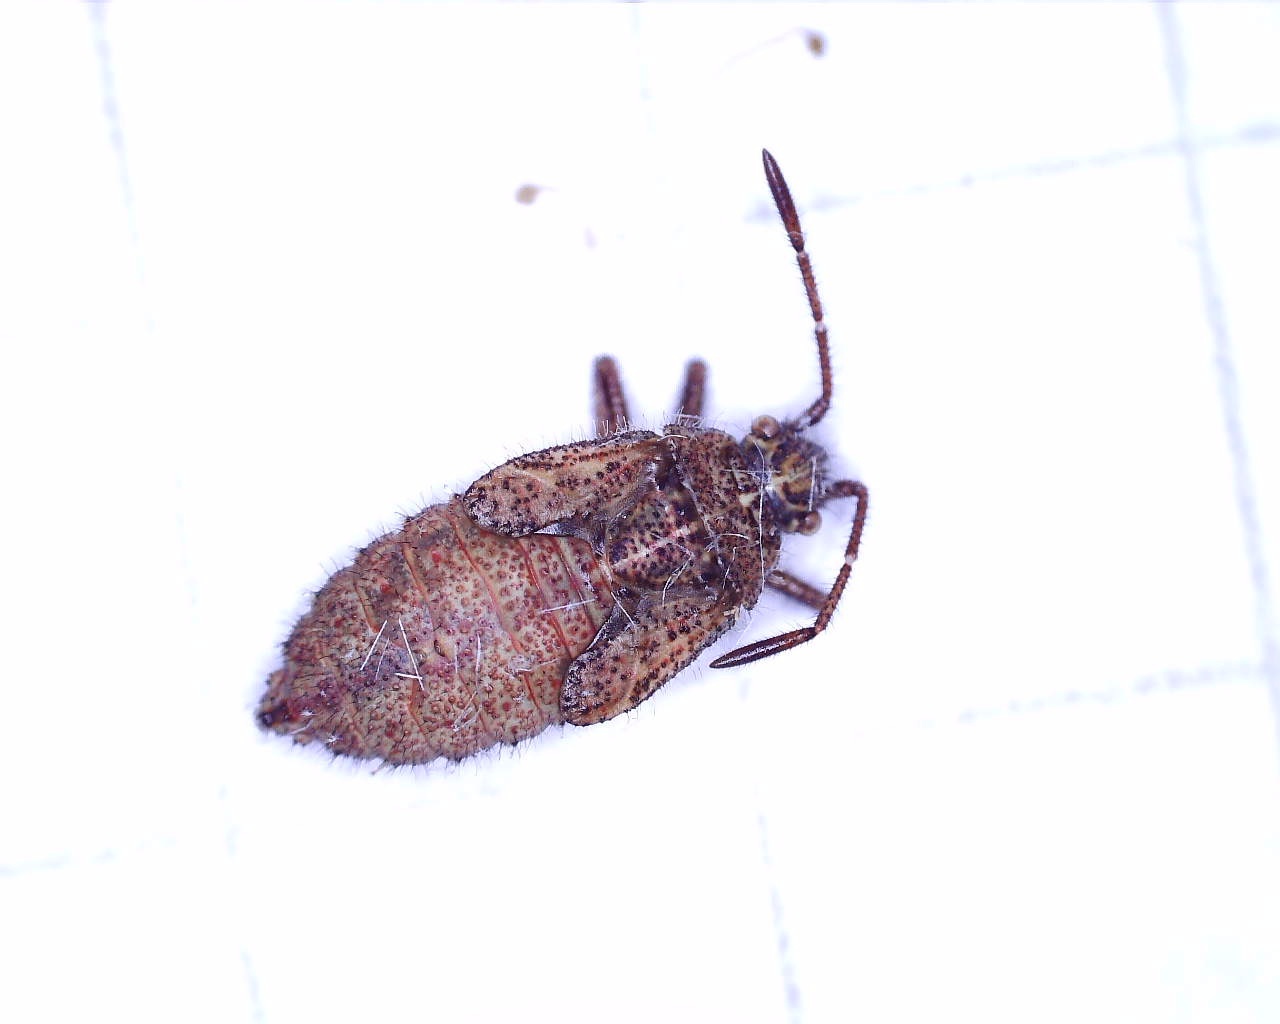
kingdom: Animalia
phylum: Arthropoda
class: Insecta
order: Hemiptera
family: Rhopalidae
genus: Corizus
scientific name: Corizus hyoscyami
